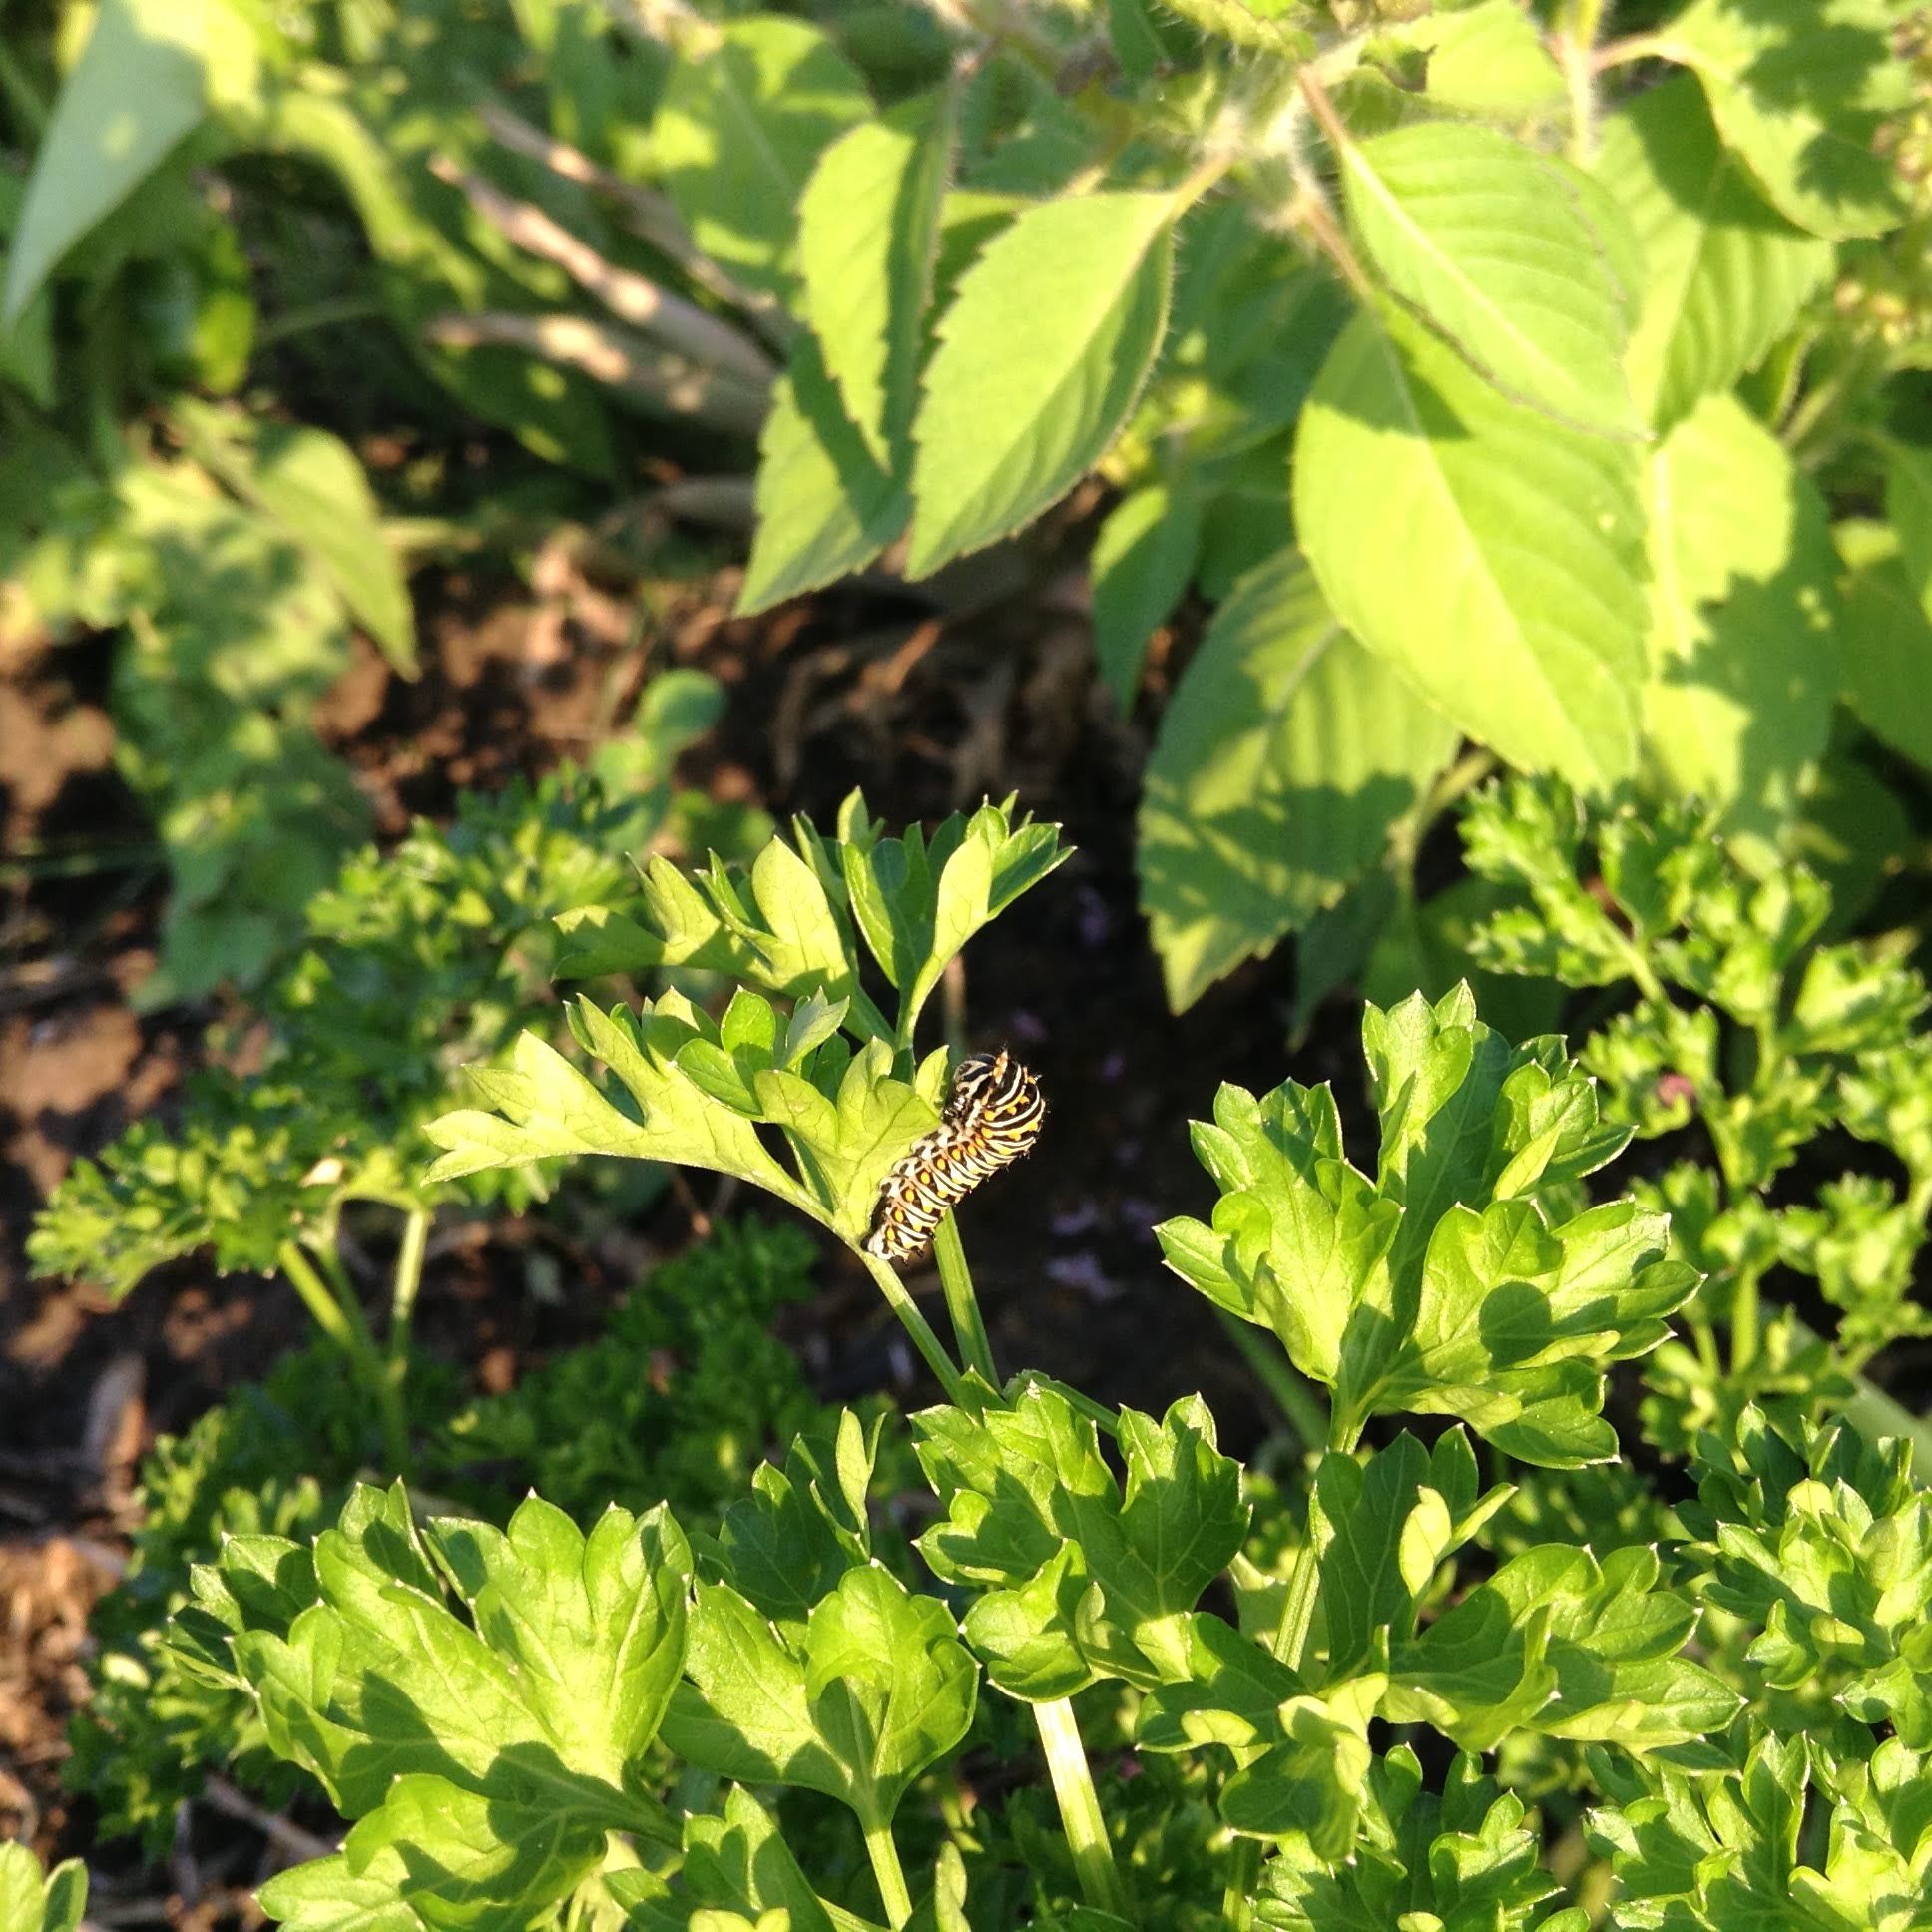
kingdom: Animalia
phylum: Arthropoda
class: Insecta
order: Lepidoptera
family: Papilionidae
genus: Papilio
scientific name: Papilio polyxenes
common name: Black swallowtail
